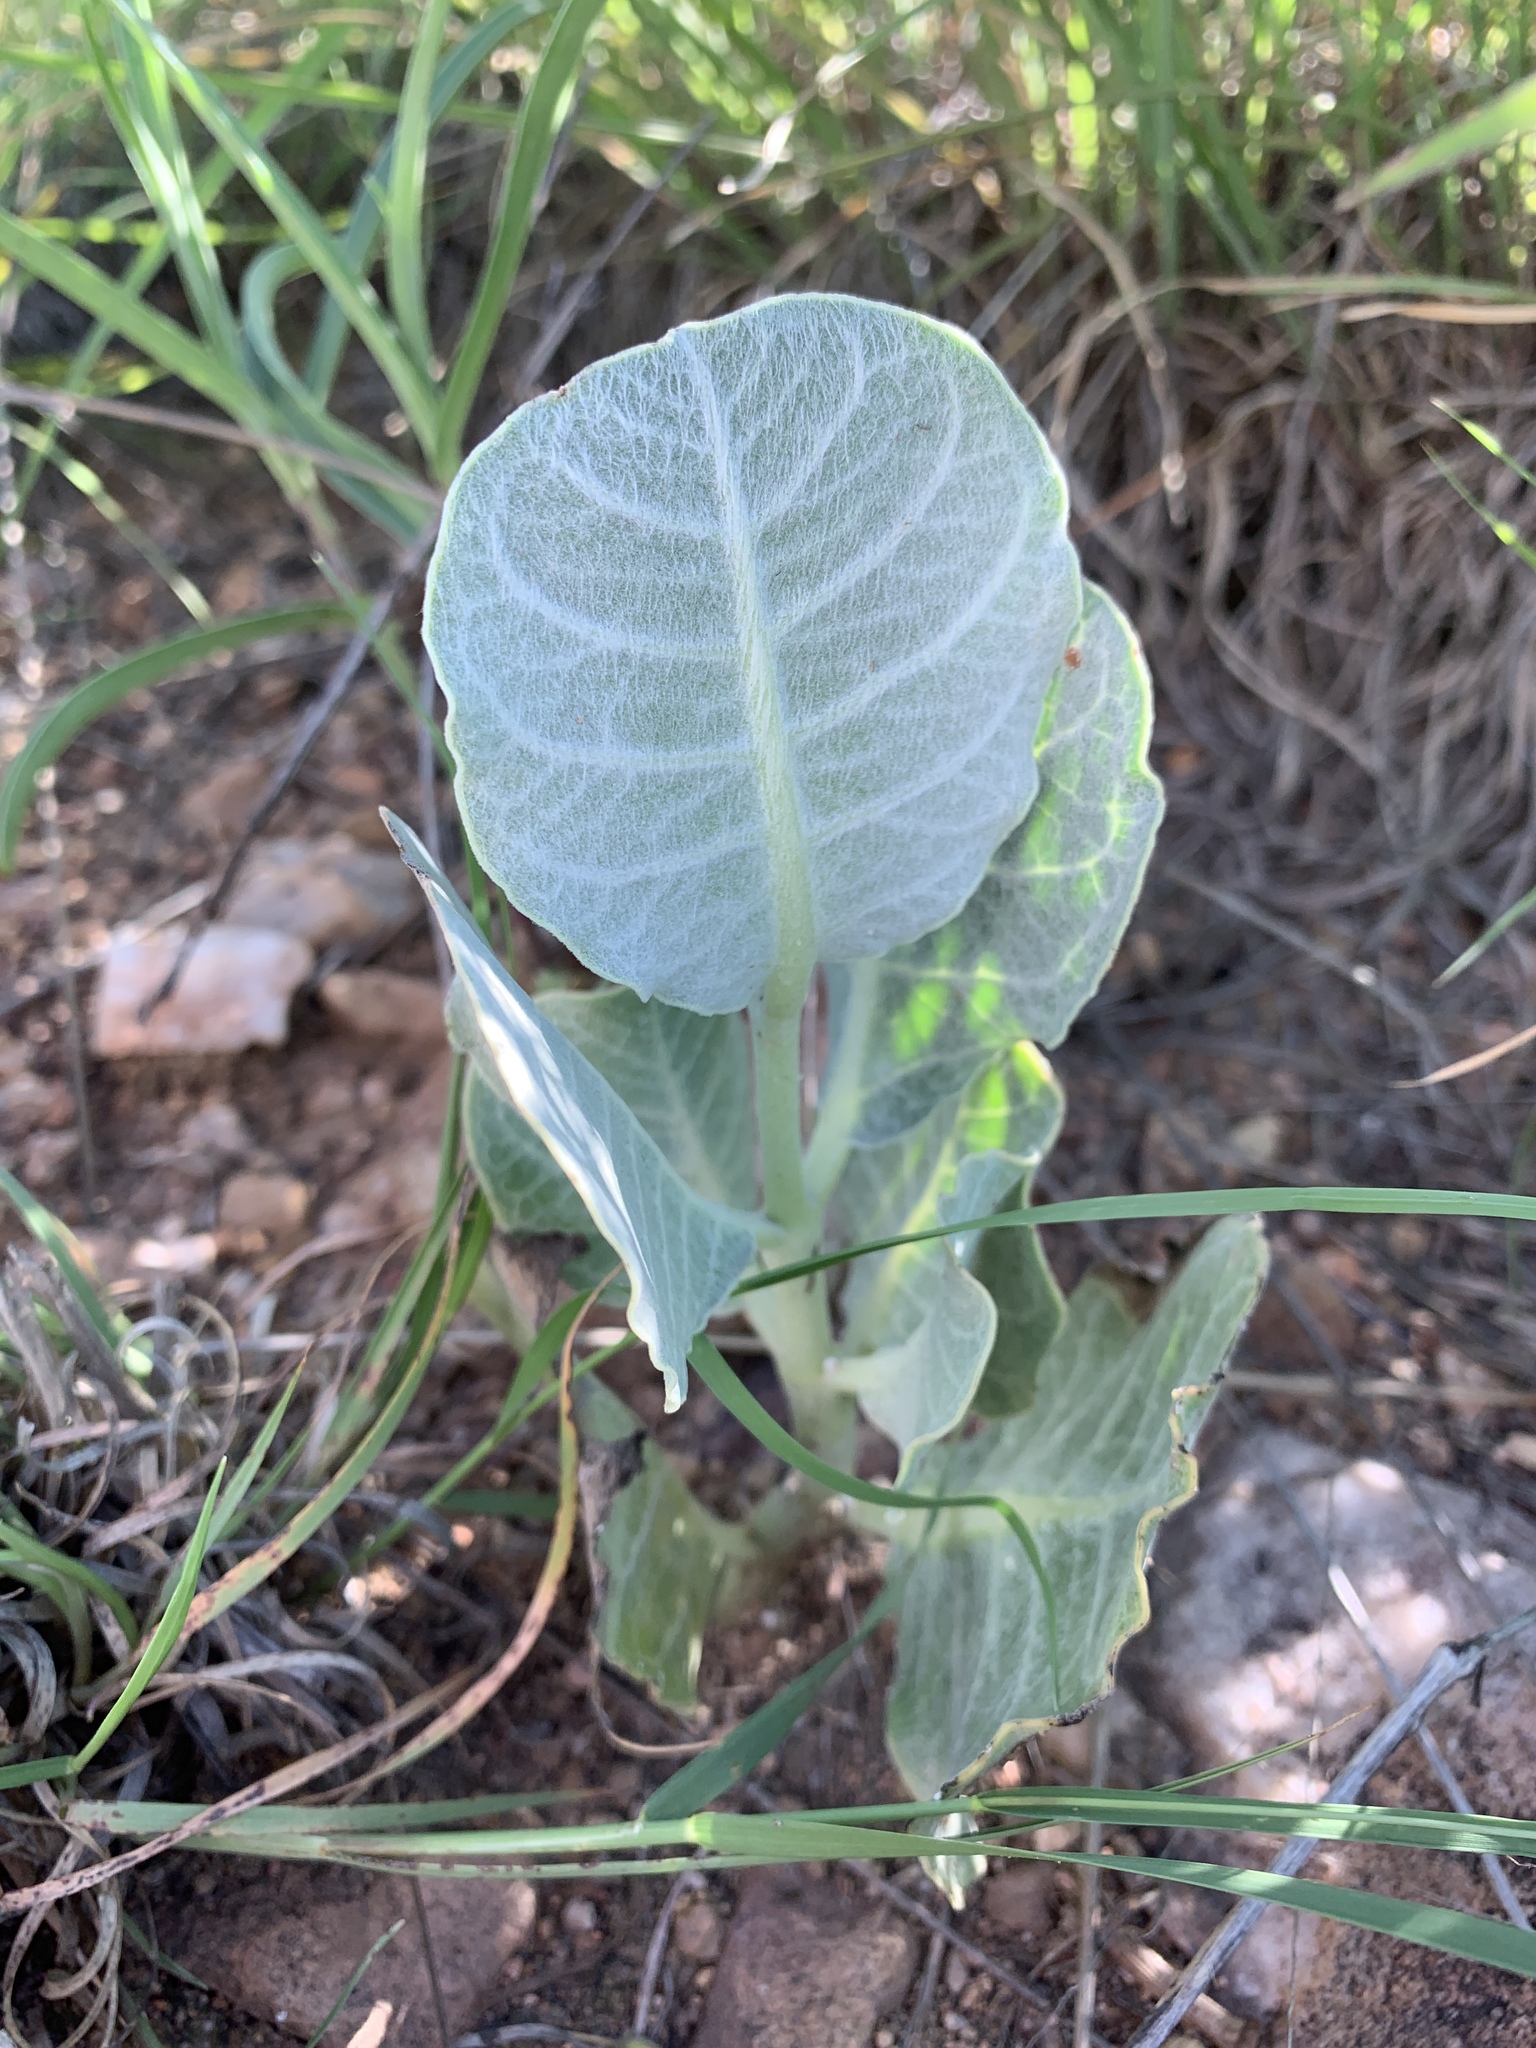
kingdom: Plantae
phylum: Tracheophyta
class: Magnoliopsida
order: Gentianales
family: Apocynaceae
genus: Asclepias
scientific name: Asclepias nummularia
